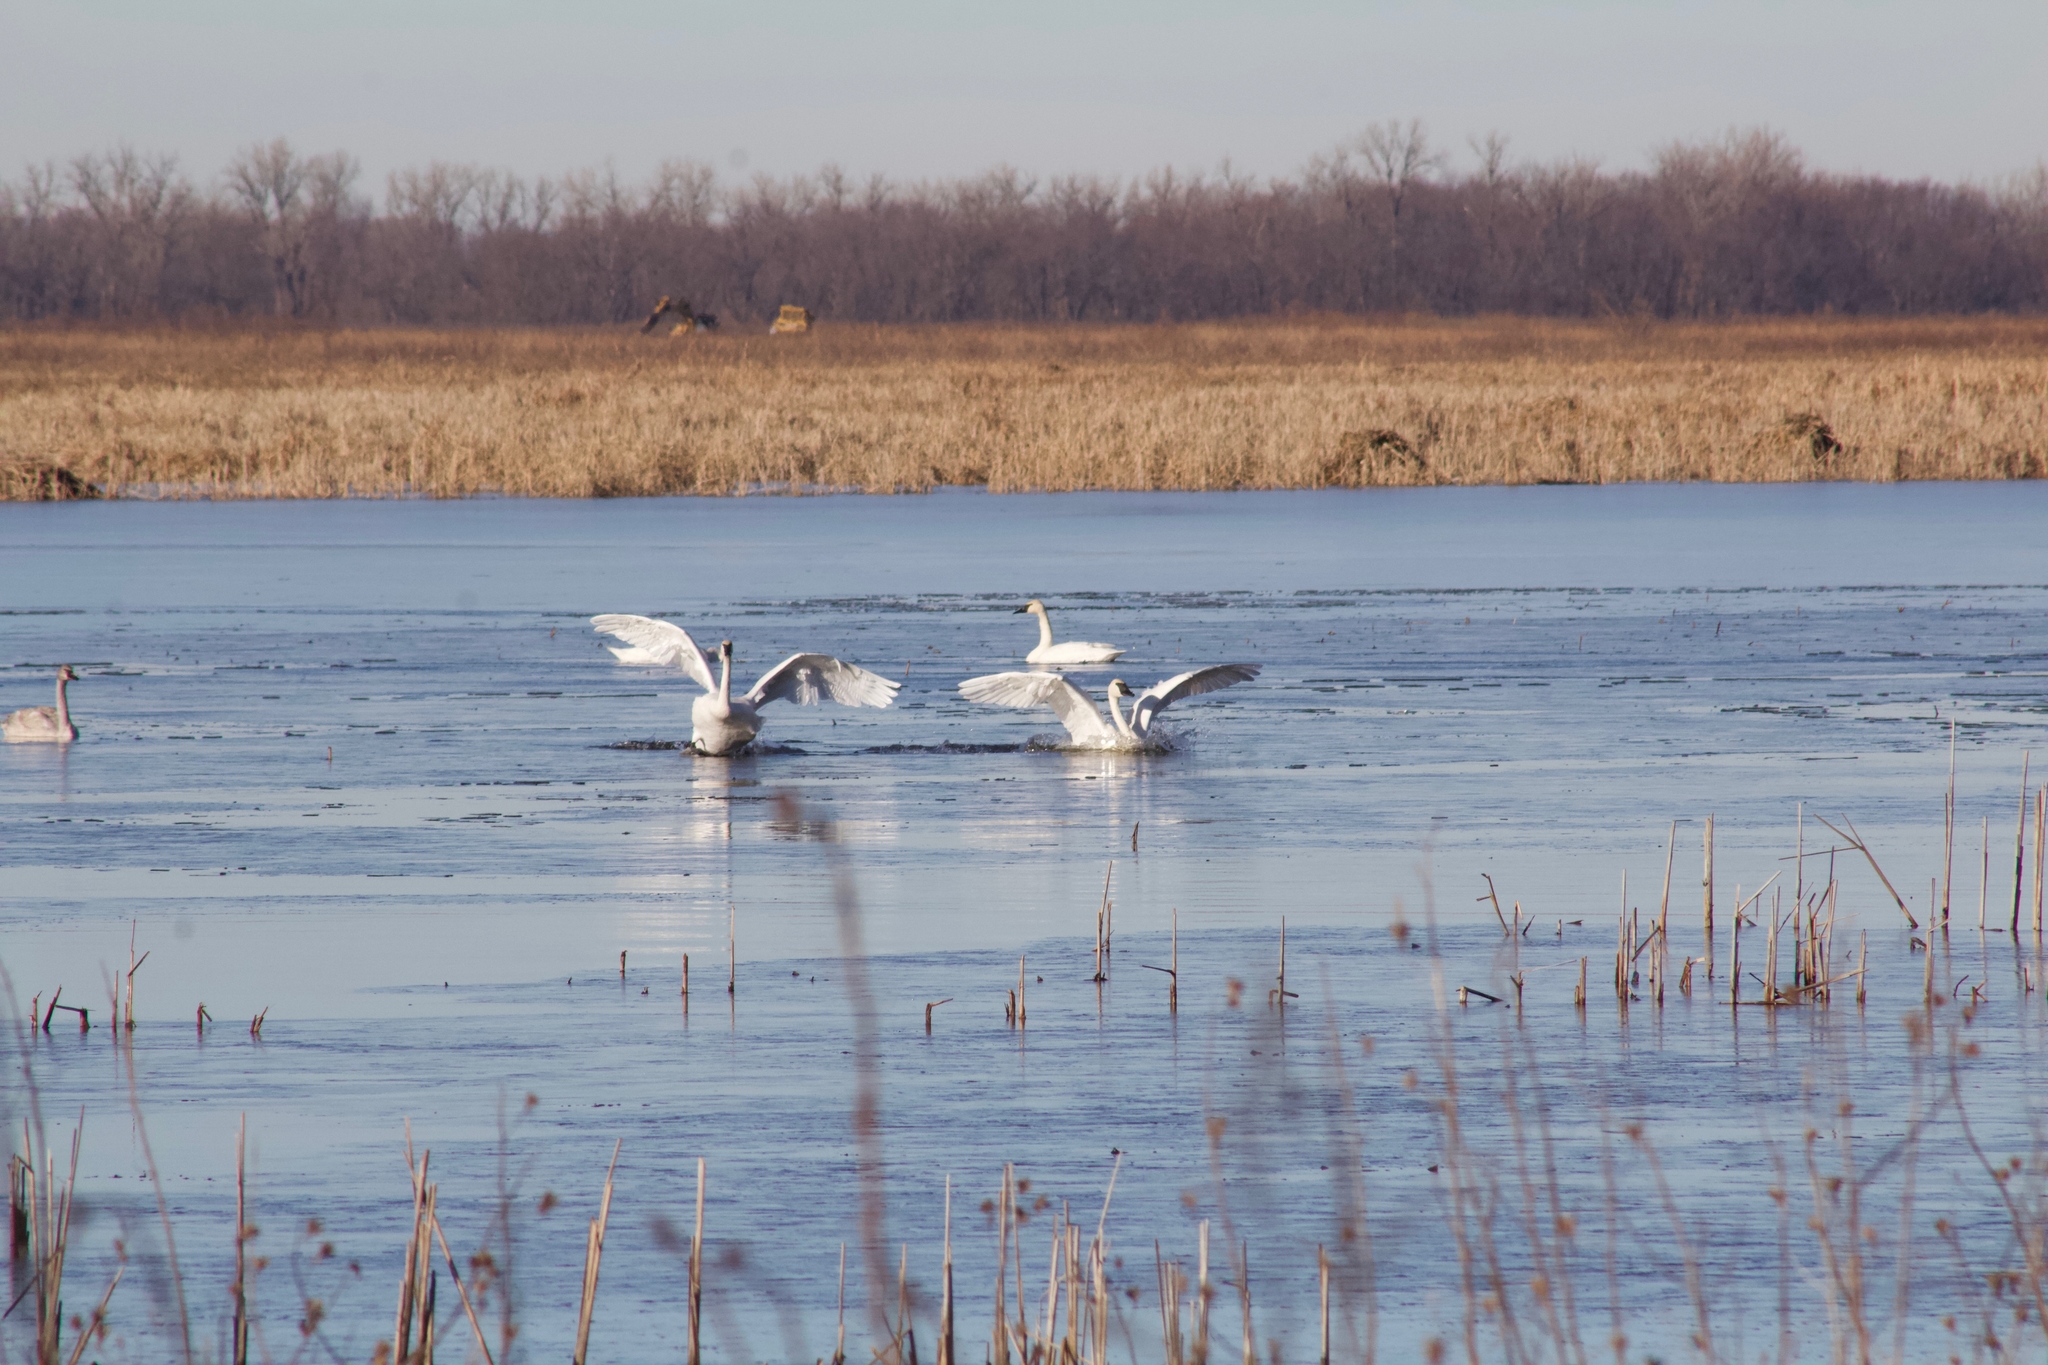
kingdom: Animalia
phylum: Chordata
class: Aves
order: Anseriformes
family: Anatidae
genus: Cygnus
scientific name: Cygnus buccinator
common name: Trumpeter swan
